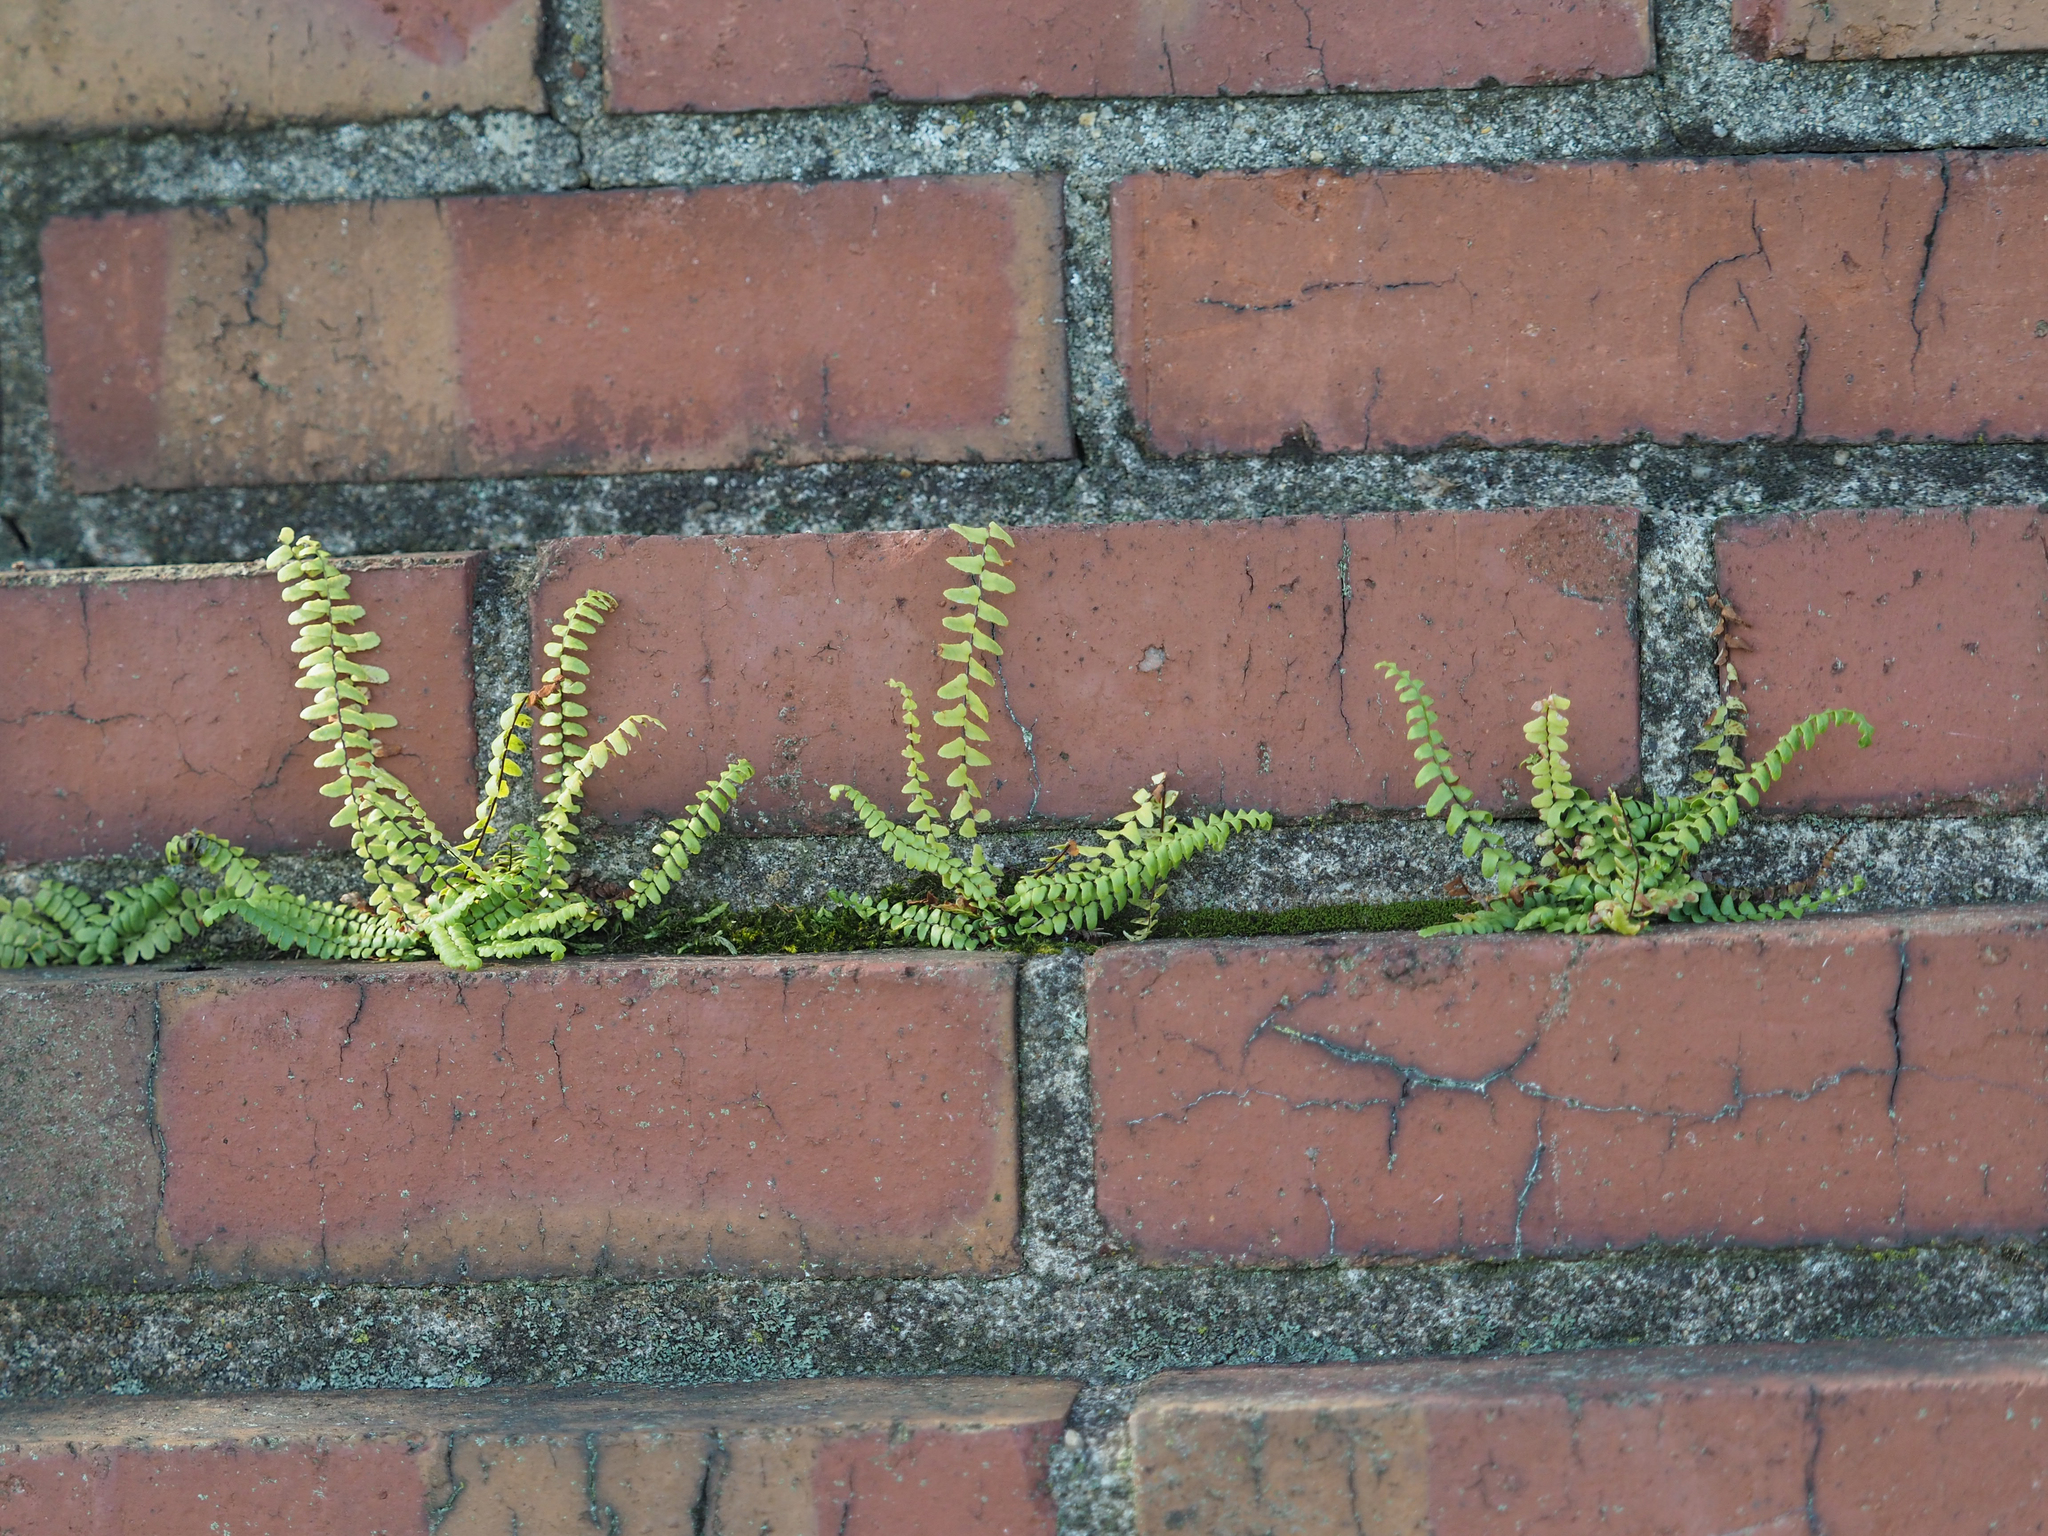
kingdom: Plantae
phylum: Tracheophyta
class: Polypodiopsida
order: Polypodiales
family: Aspleniaceae
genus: Asplenium
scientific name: Asplenium platyneuron
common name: Ebony spleenwort
